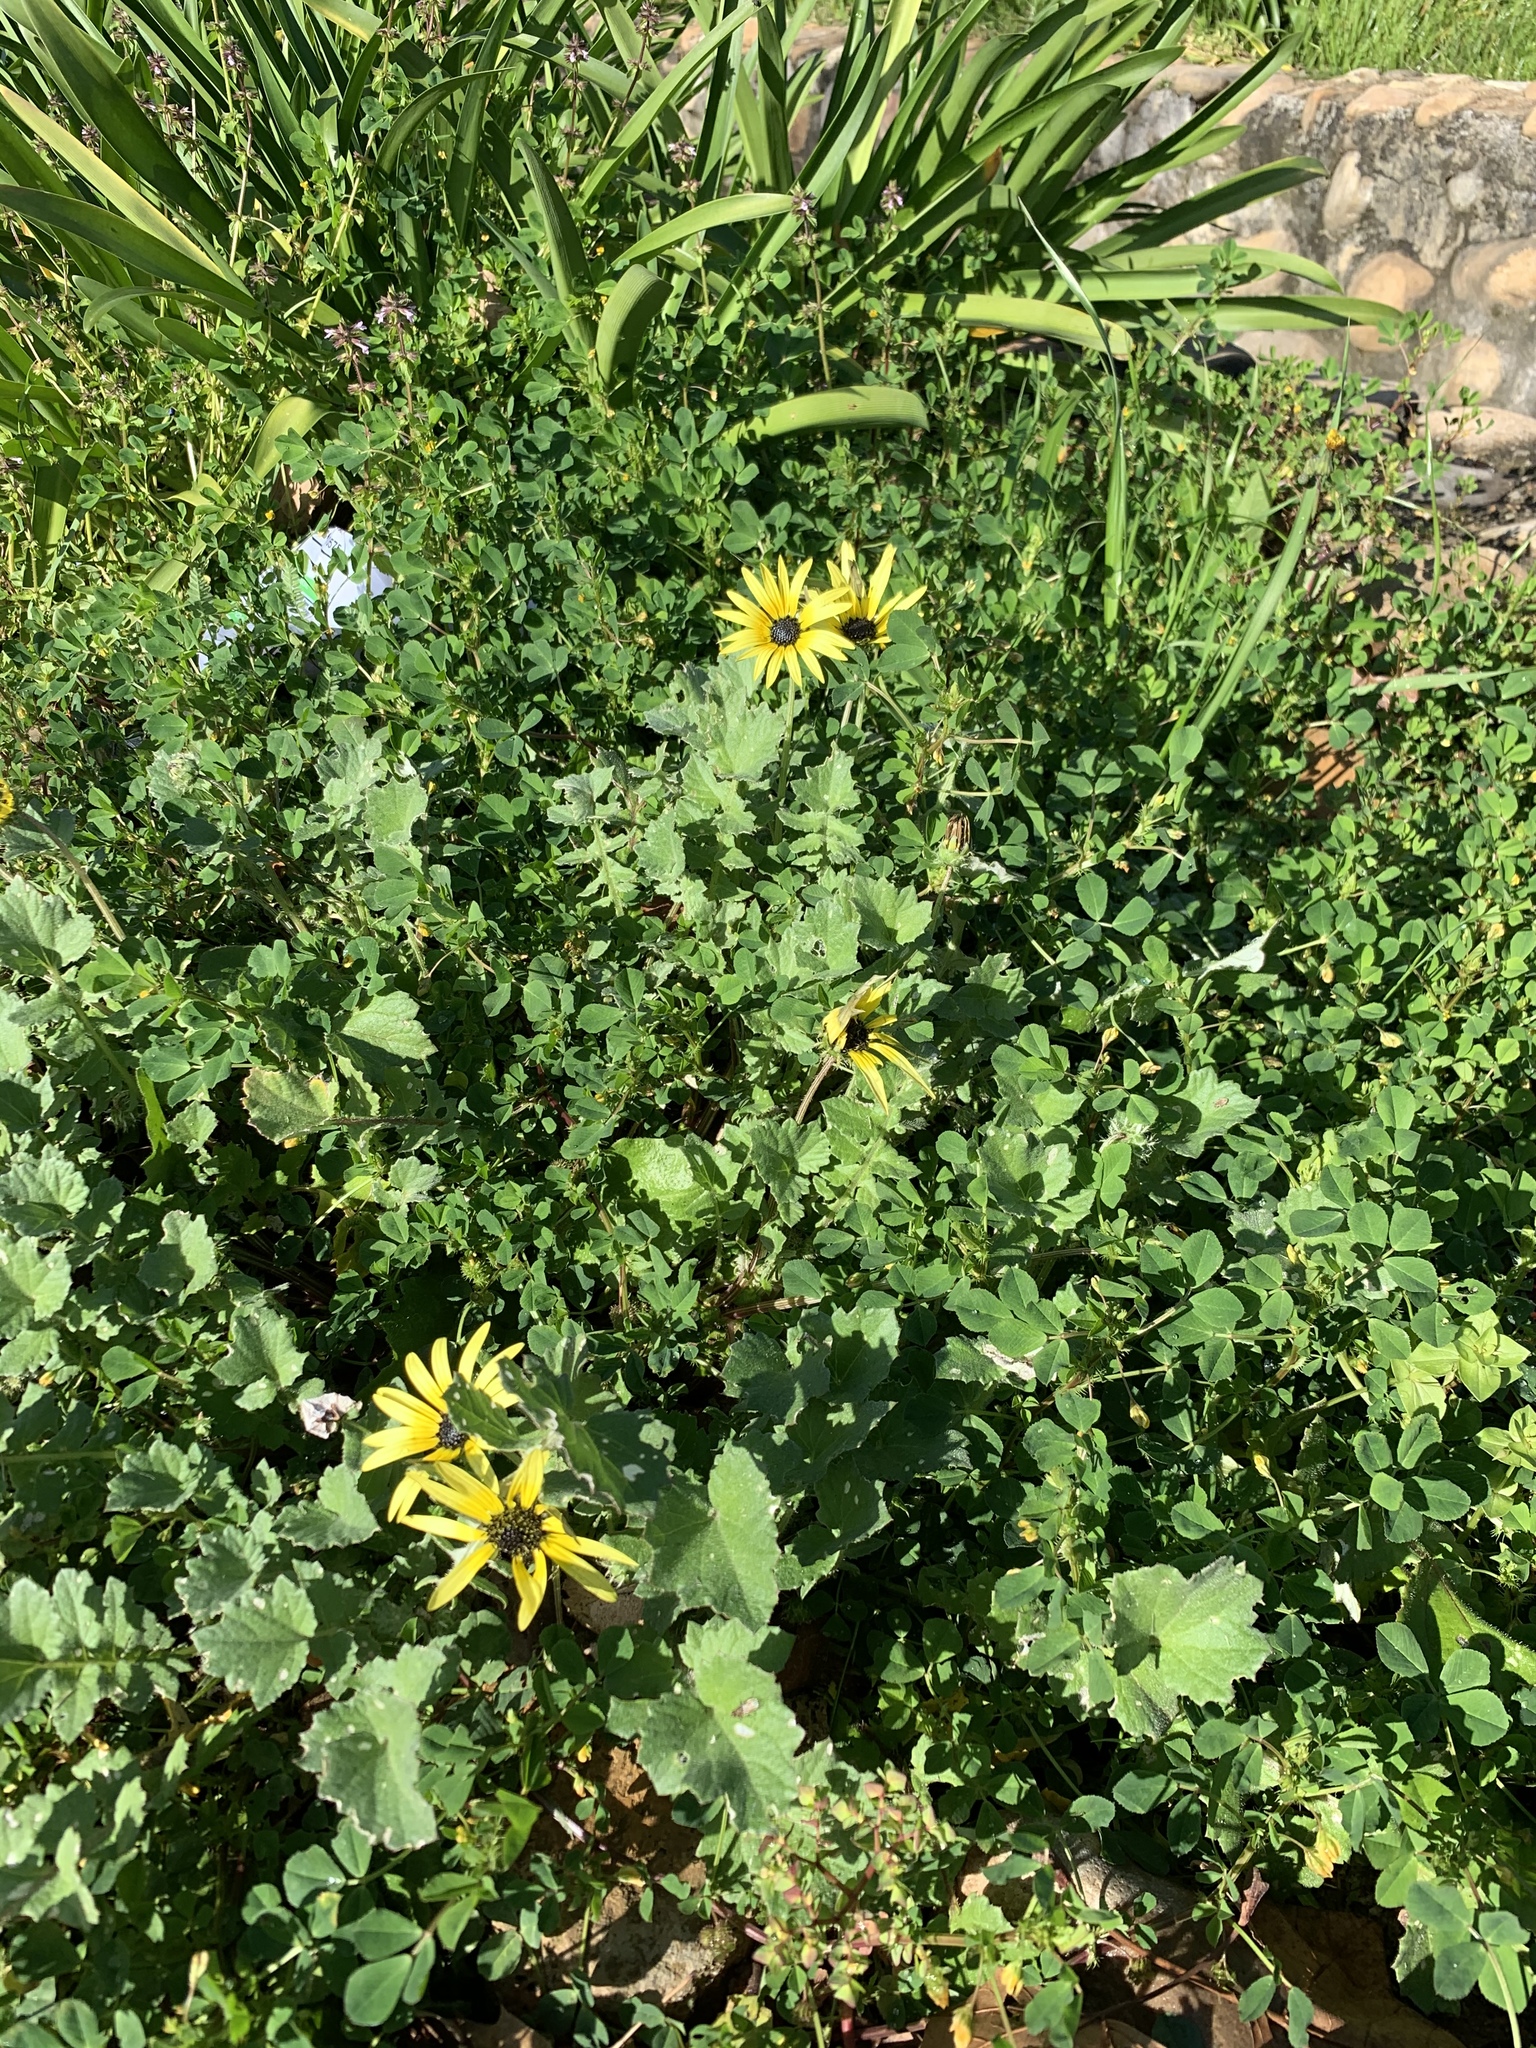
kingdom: Plantae
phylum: Tracheophyta
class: Magnoliopsida
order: Asterales
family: Asteraceae
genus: Arctotheca
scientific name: Arctotheca calendula
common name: Capeweed
